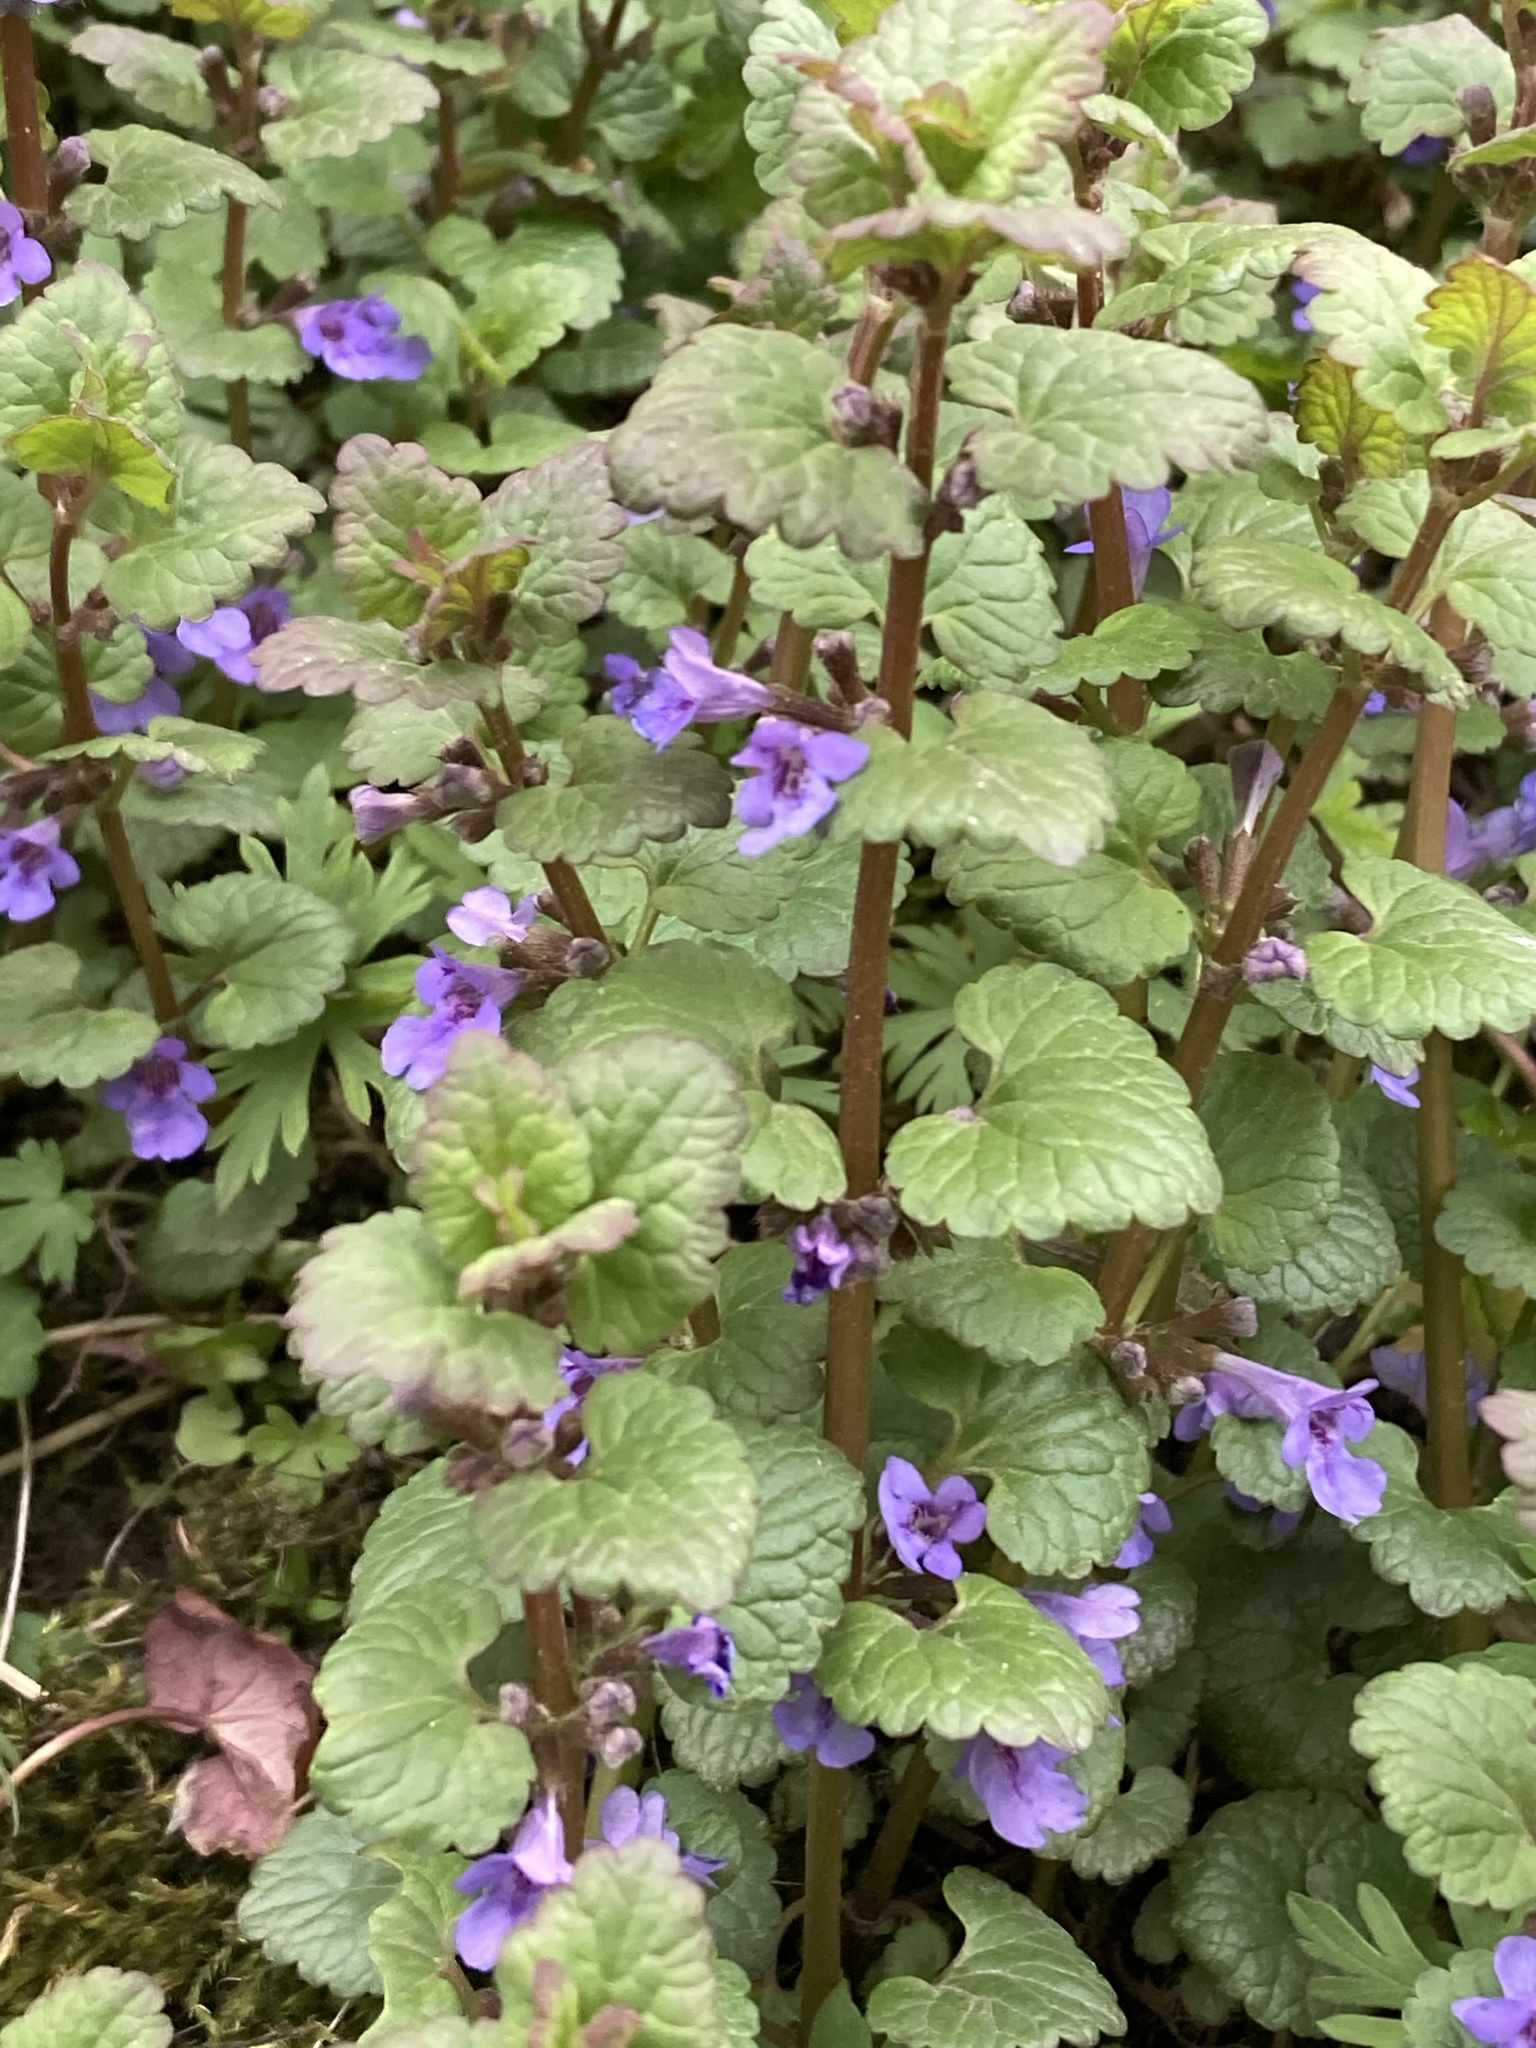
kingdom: Plantae
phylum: Tracheophyta
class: Magnoliopsida
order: Lamiales
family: Lamiaceae
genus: Glechoma
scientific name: Glechoma hederacea
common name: Ground ivy
